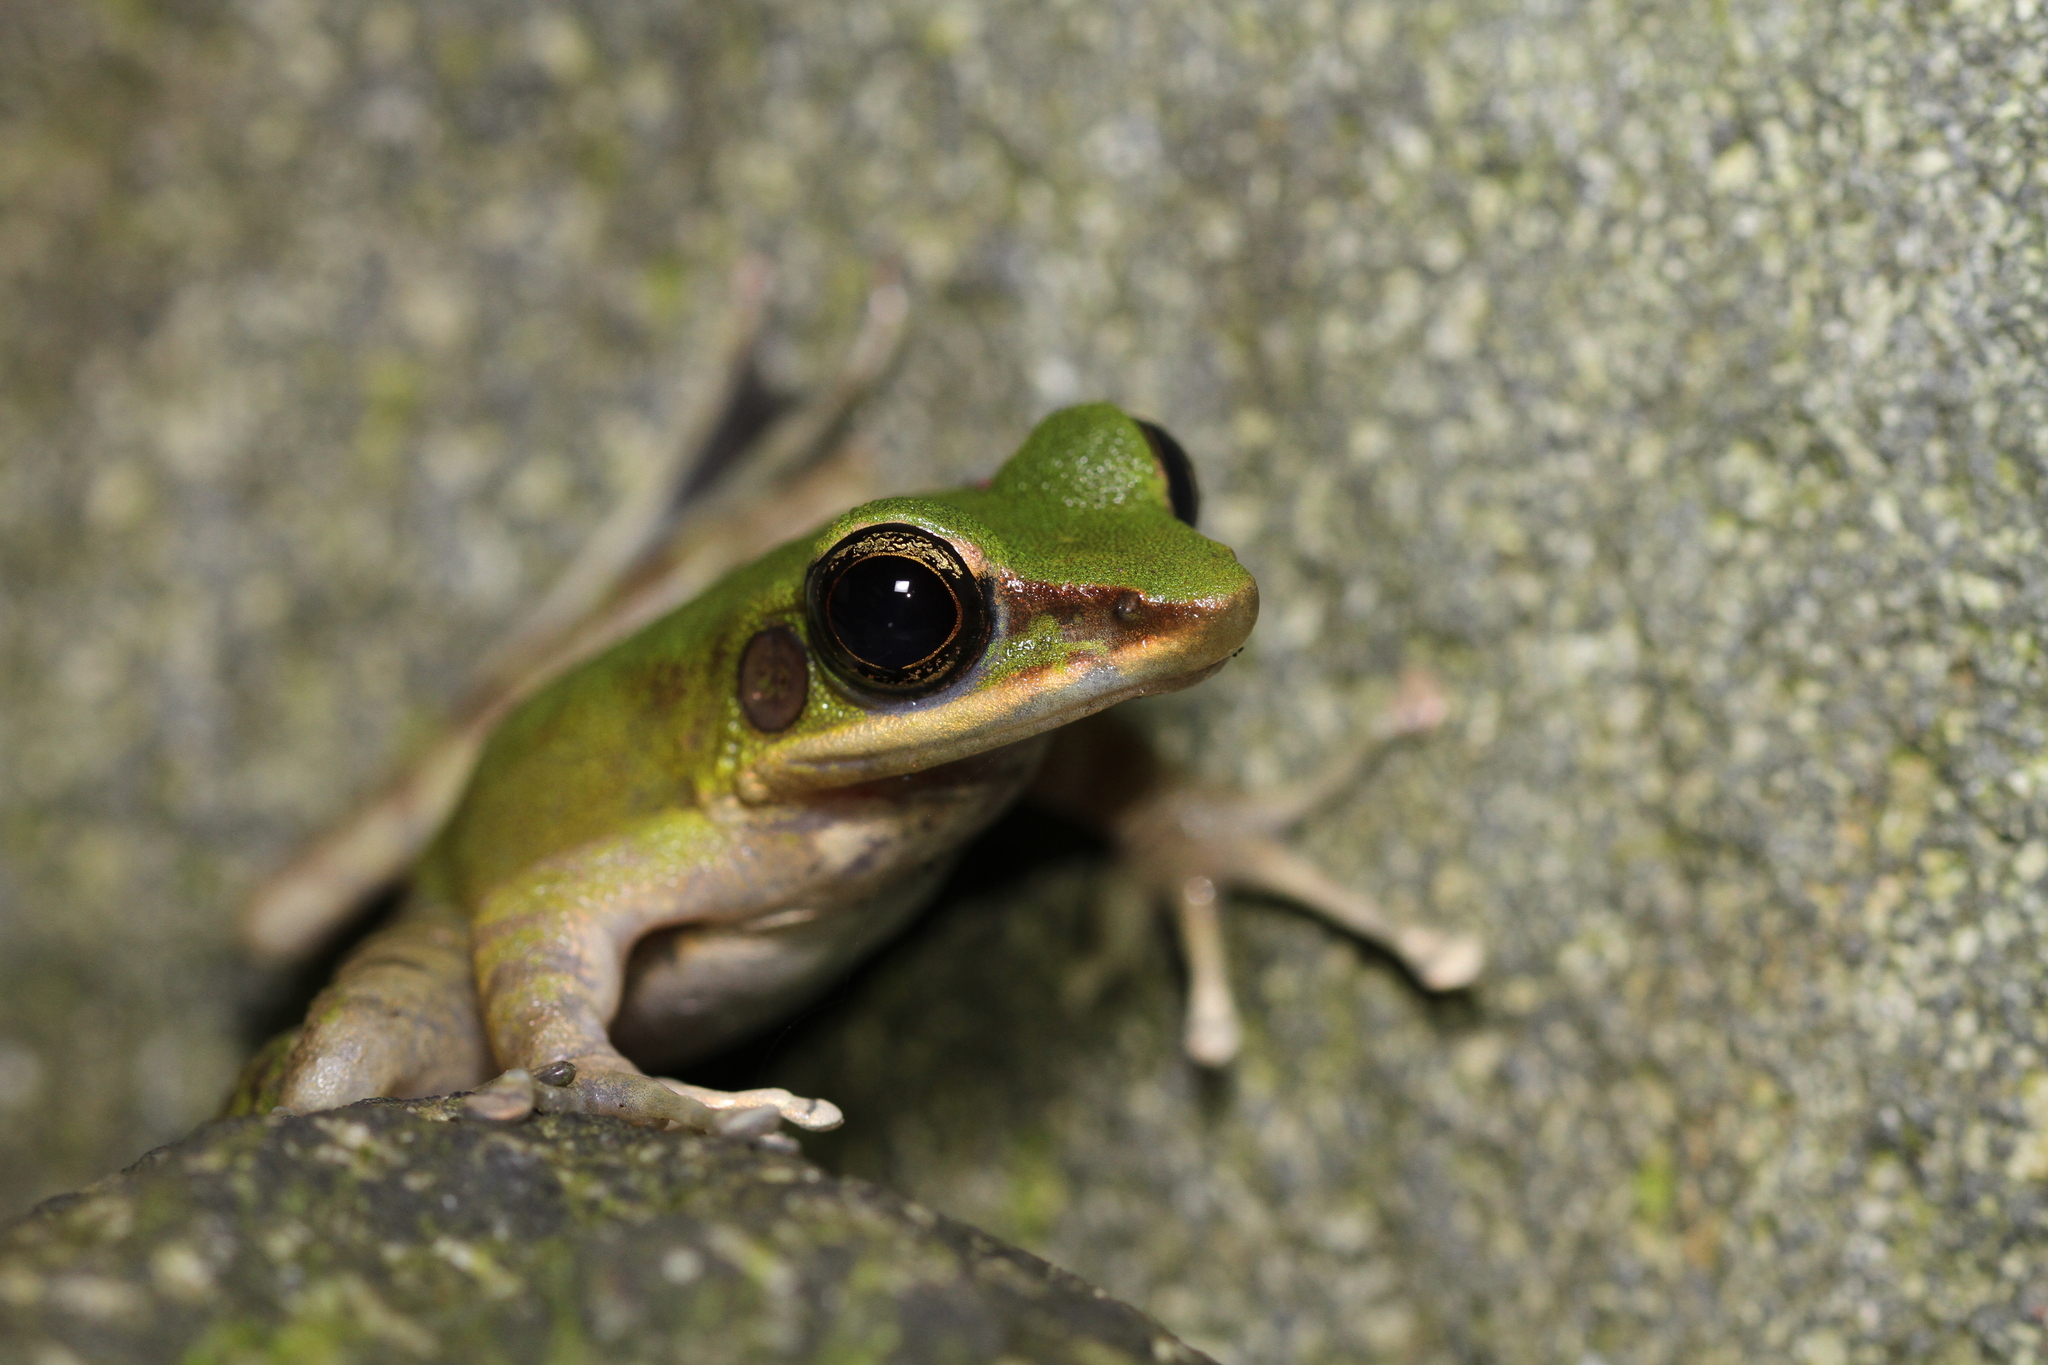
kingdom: Animalia
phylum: Chordata
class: Amphibia
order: Anura
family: Ranidae
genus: Odorrana
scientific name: Odorrana hosii
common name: Green tree frog
